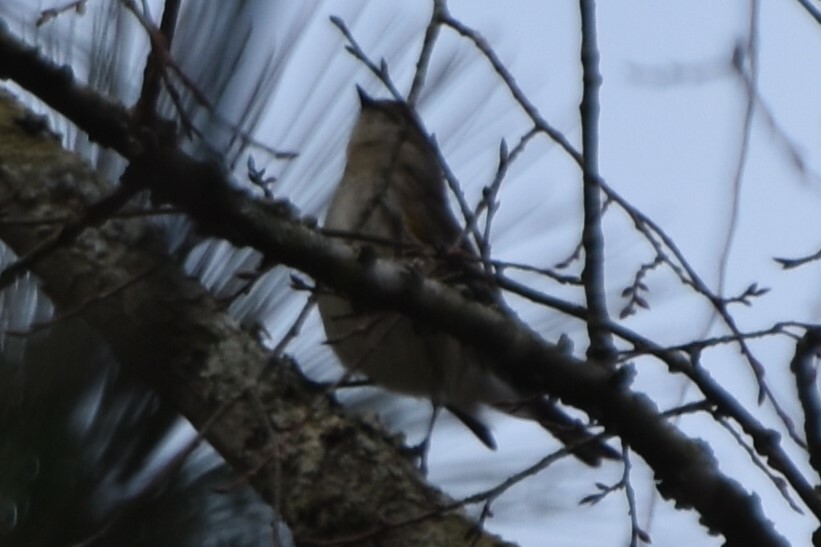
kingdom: Animalia
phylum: Chordata
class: Aves
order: Passeriformes
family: Parulidae
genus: Setophaga
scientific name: Setophaga coronata
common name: Myrtle warbler
